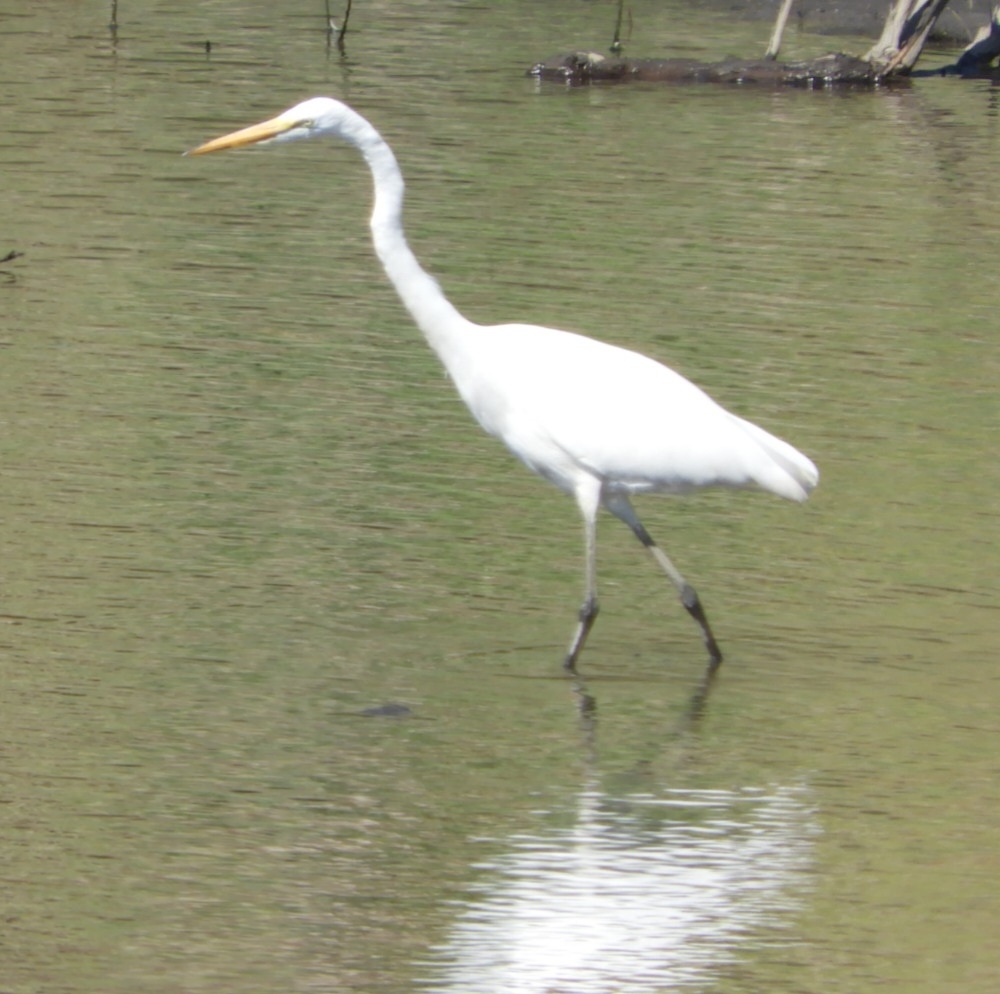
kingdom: Animalia
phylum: Chordata
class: Aves
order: Pelecaniformes
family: Ardeidae
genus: Ardea
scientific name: Ardea alba
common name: Great egret
